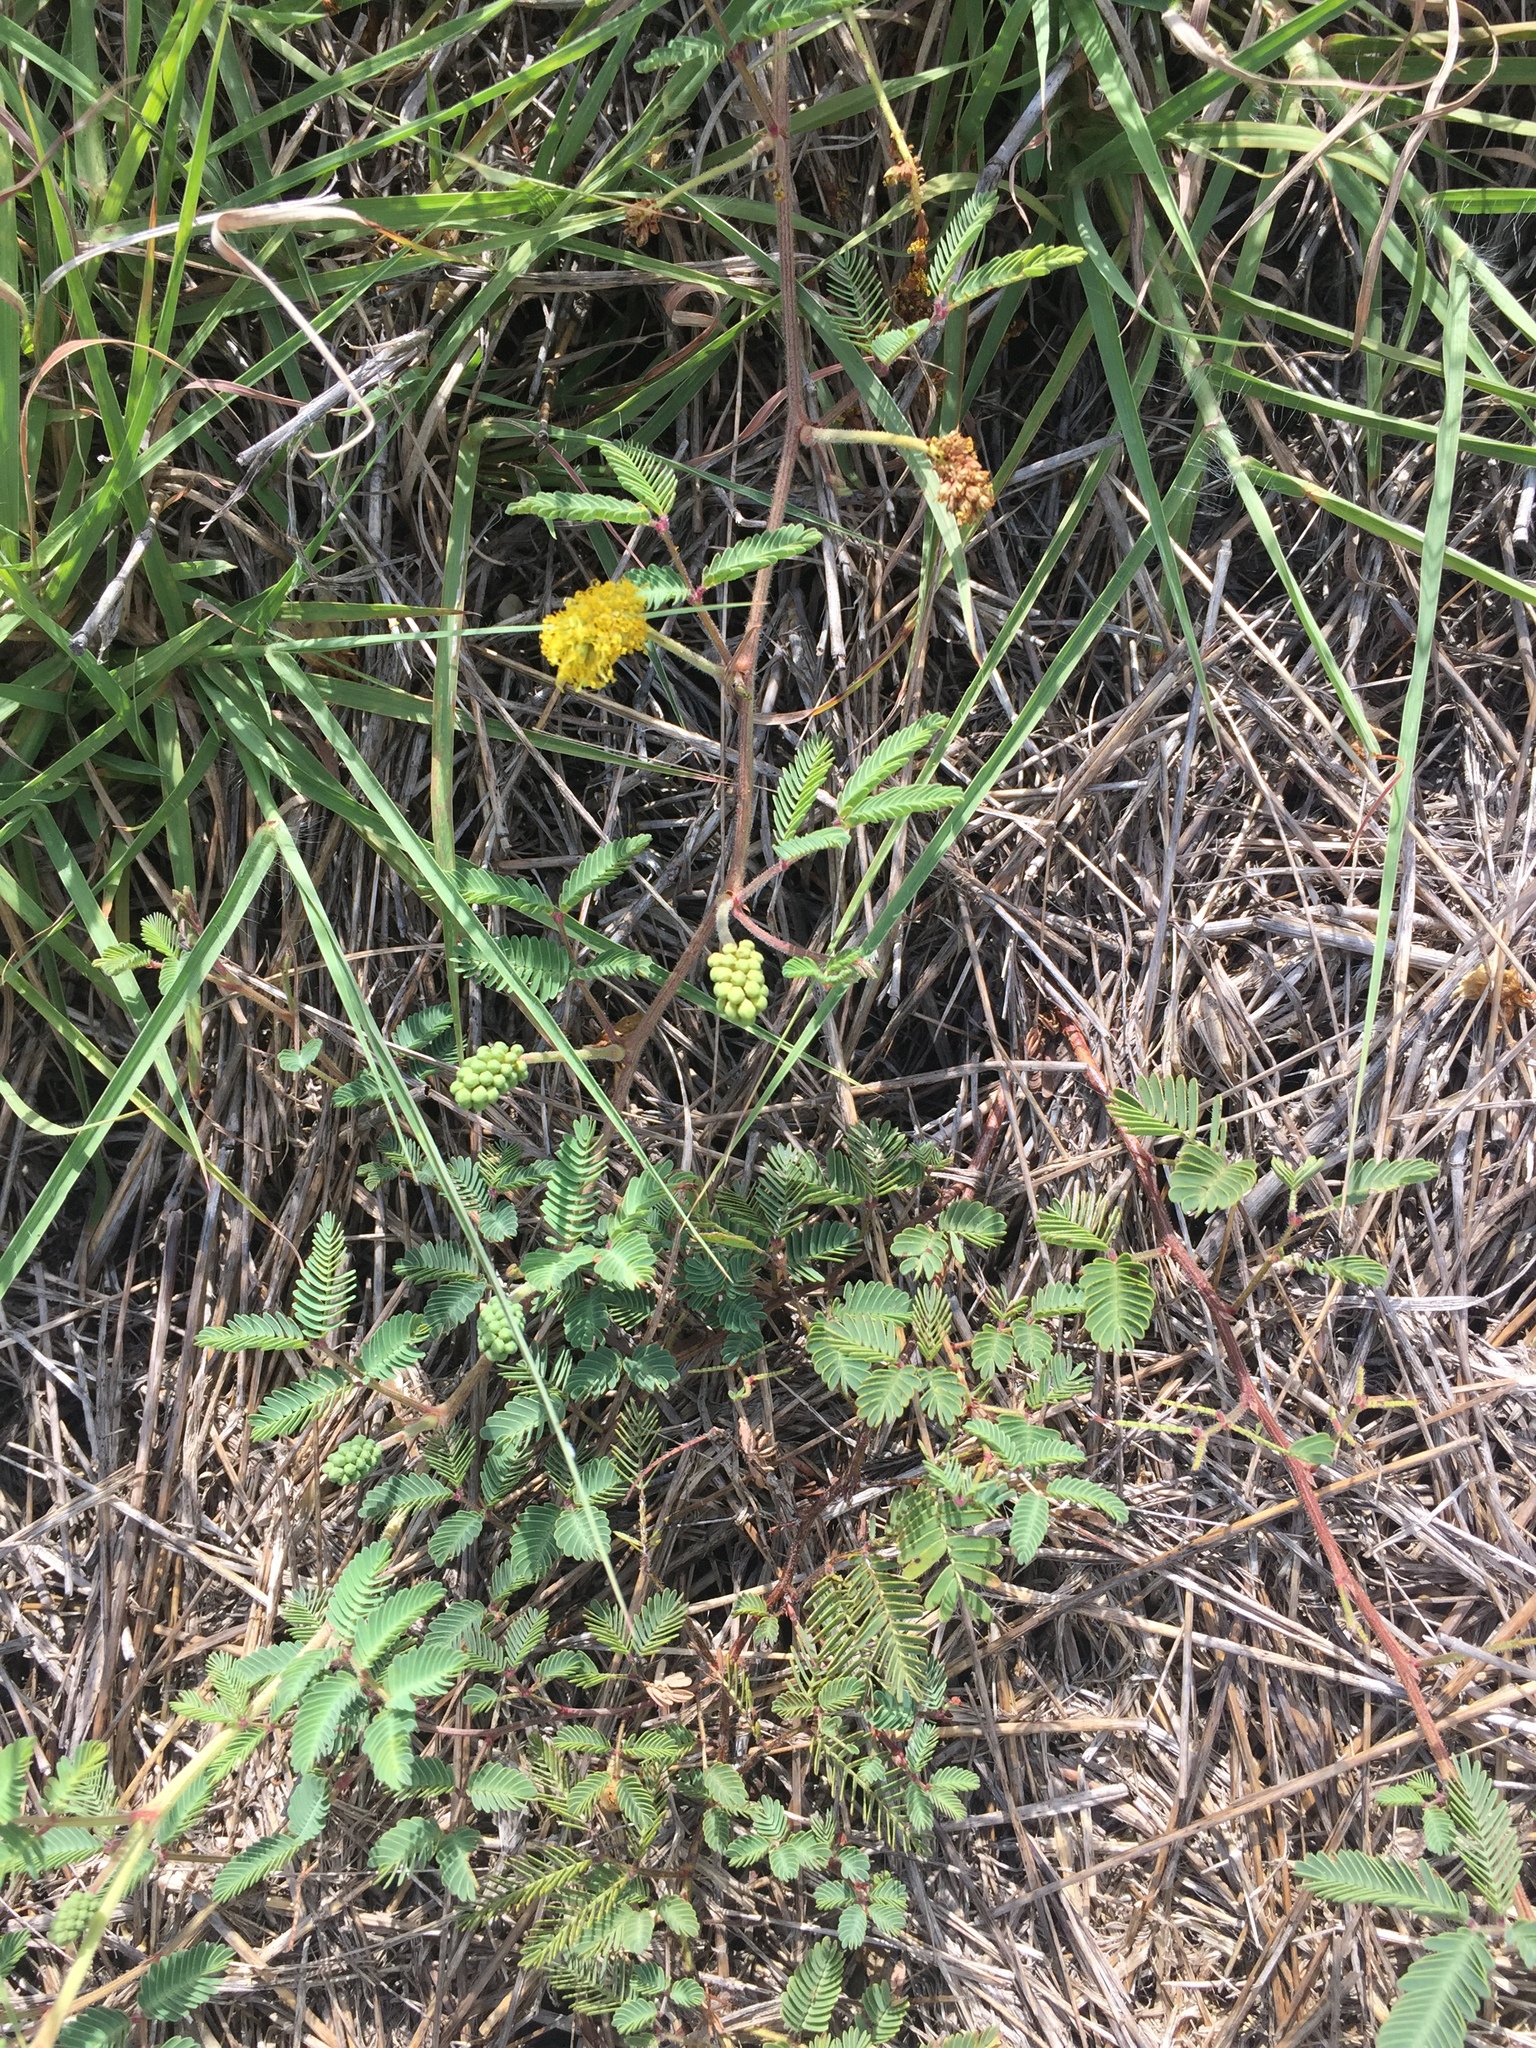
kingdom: Plantae
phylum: Tracheophyta
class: Magnoliopsida
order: Fabales
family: Fabaceae
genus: Neptunia
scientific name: Neptunia lutea
